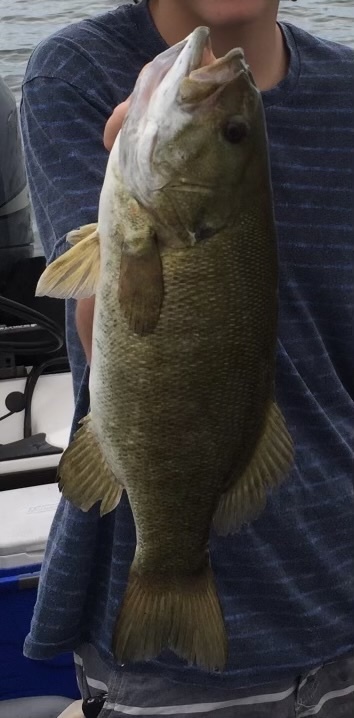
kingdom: Animalia
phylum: Chordata
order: Perciformes
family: Centrarchidae
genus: Micropterus
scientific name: Micropterus dolomieu
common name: Smallmouth bass
